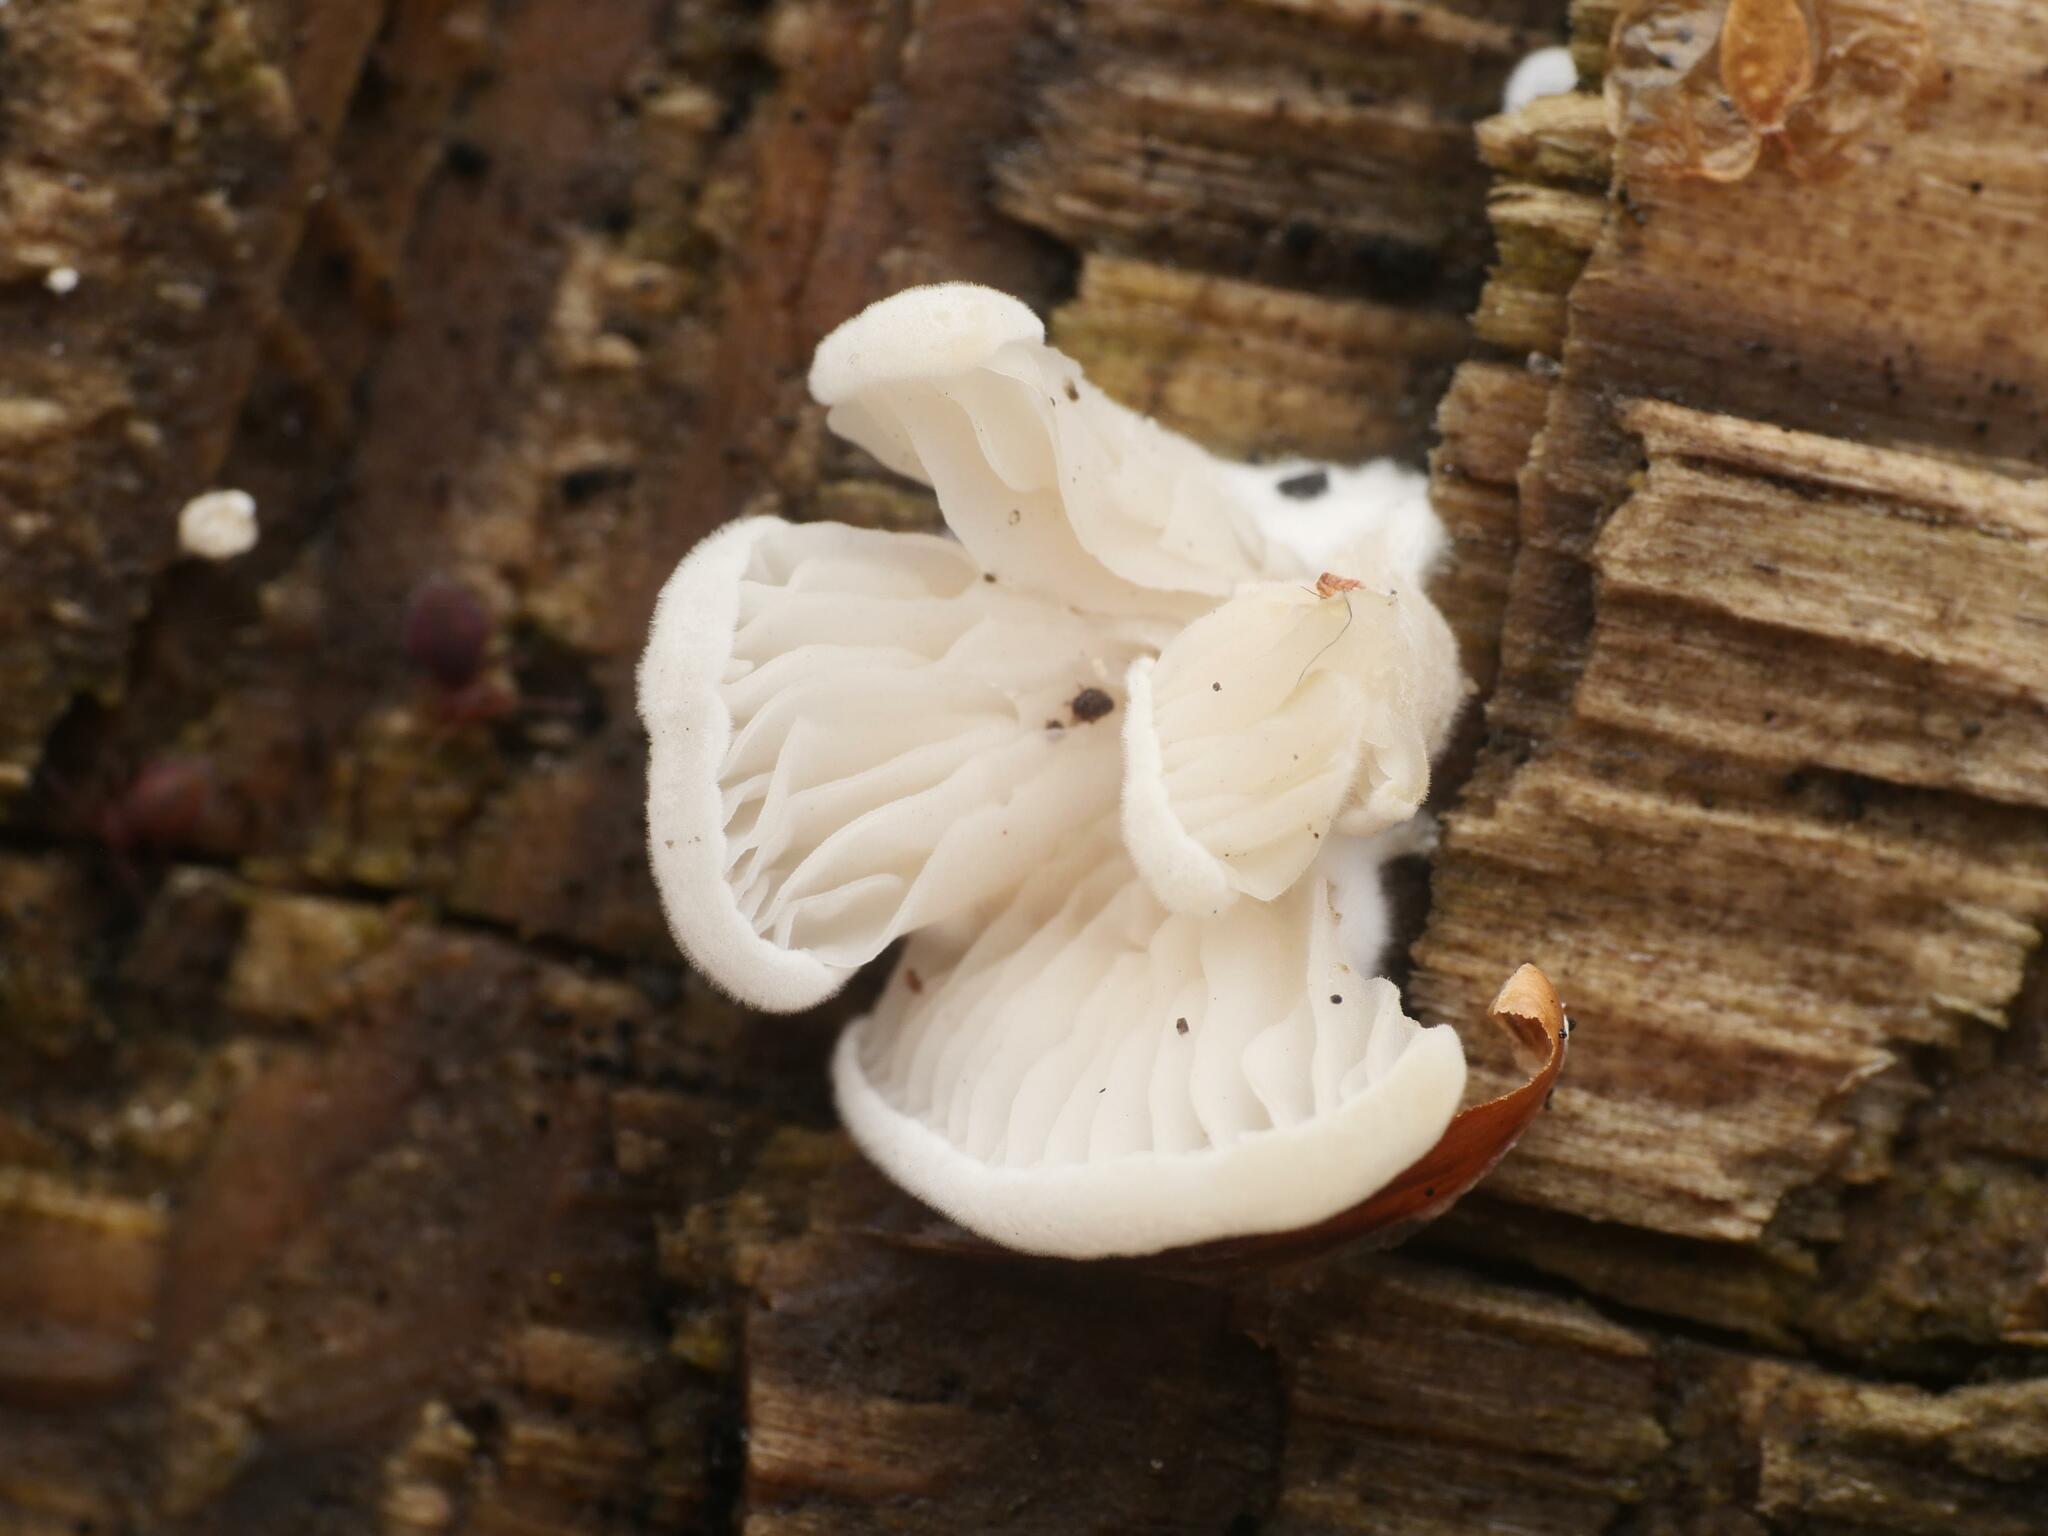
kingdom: Fungi
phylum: Basidiomycota
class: Agaricomycetes
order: Agaricales
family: Entolomataceae
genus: Clitopilus
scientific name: Clitopilus hobsonii
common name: Miller's oysterling
